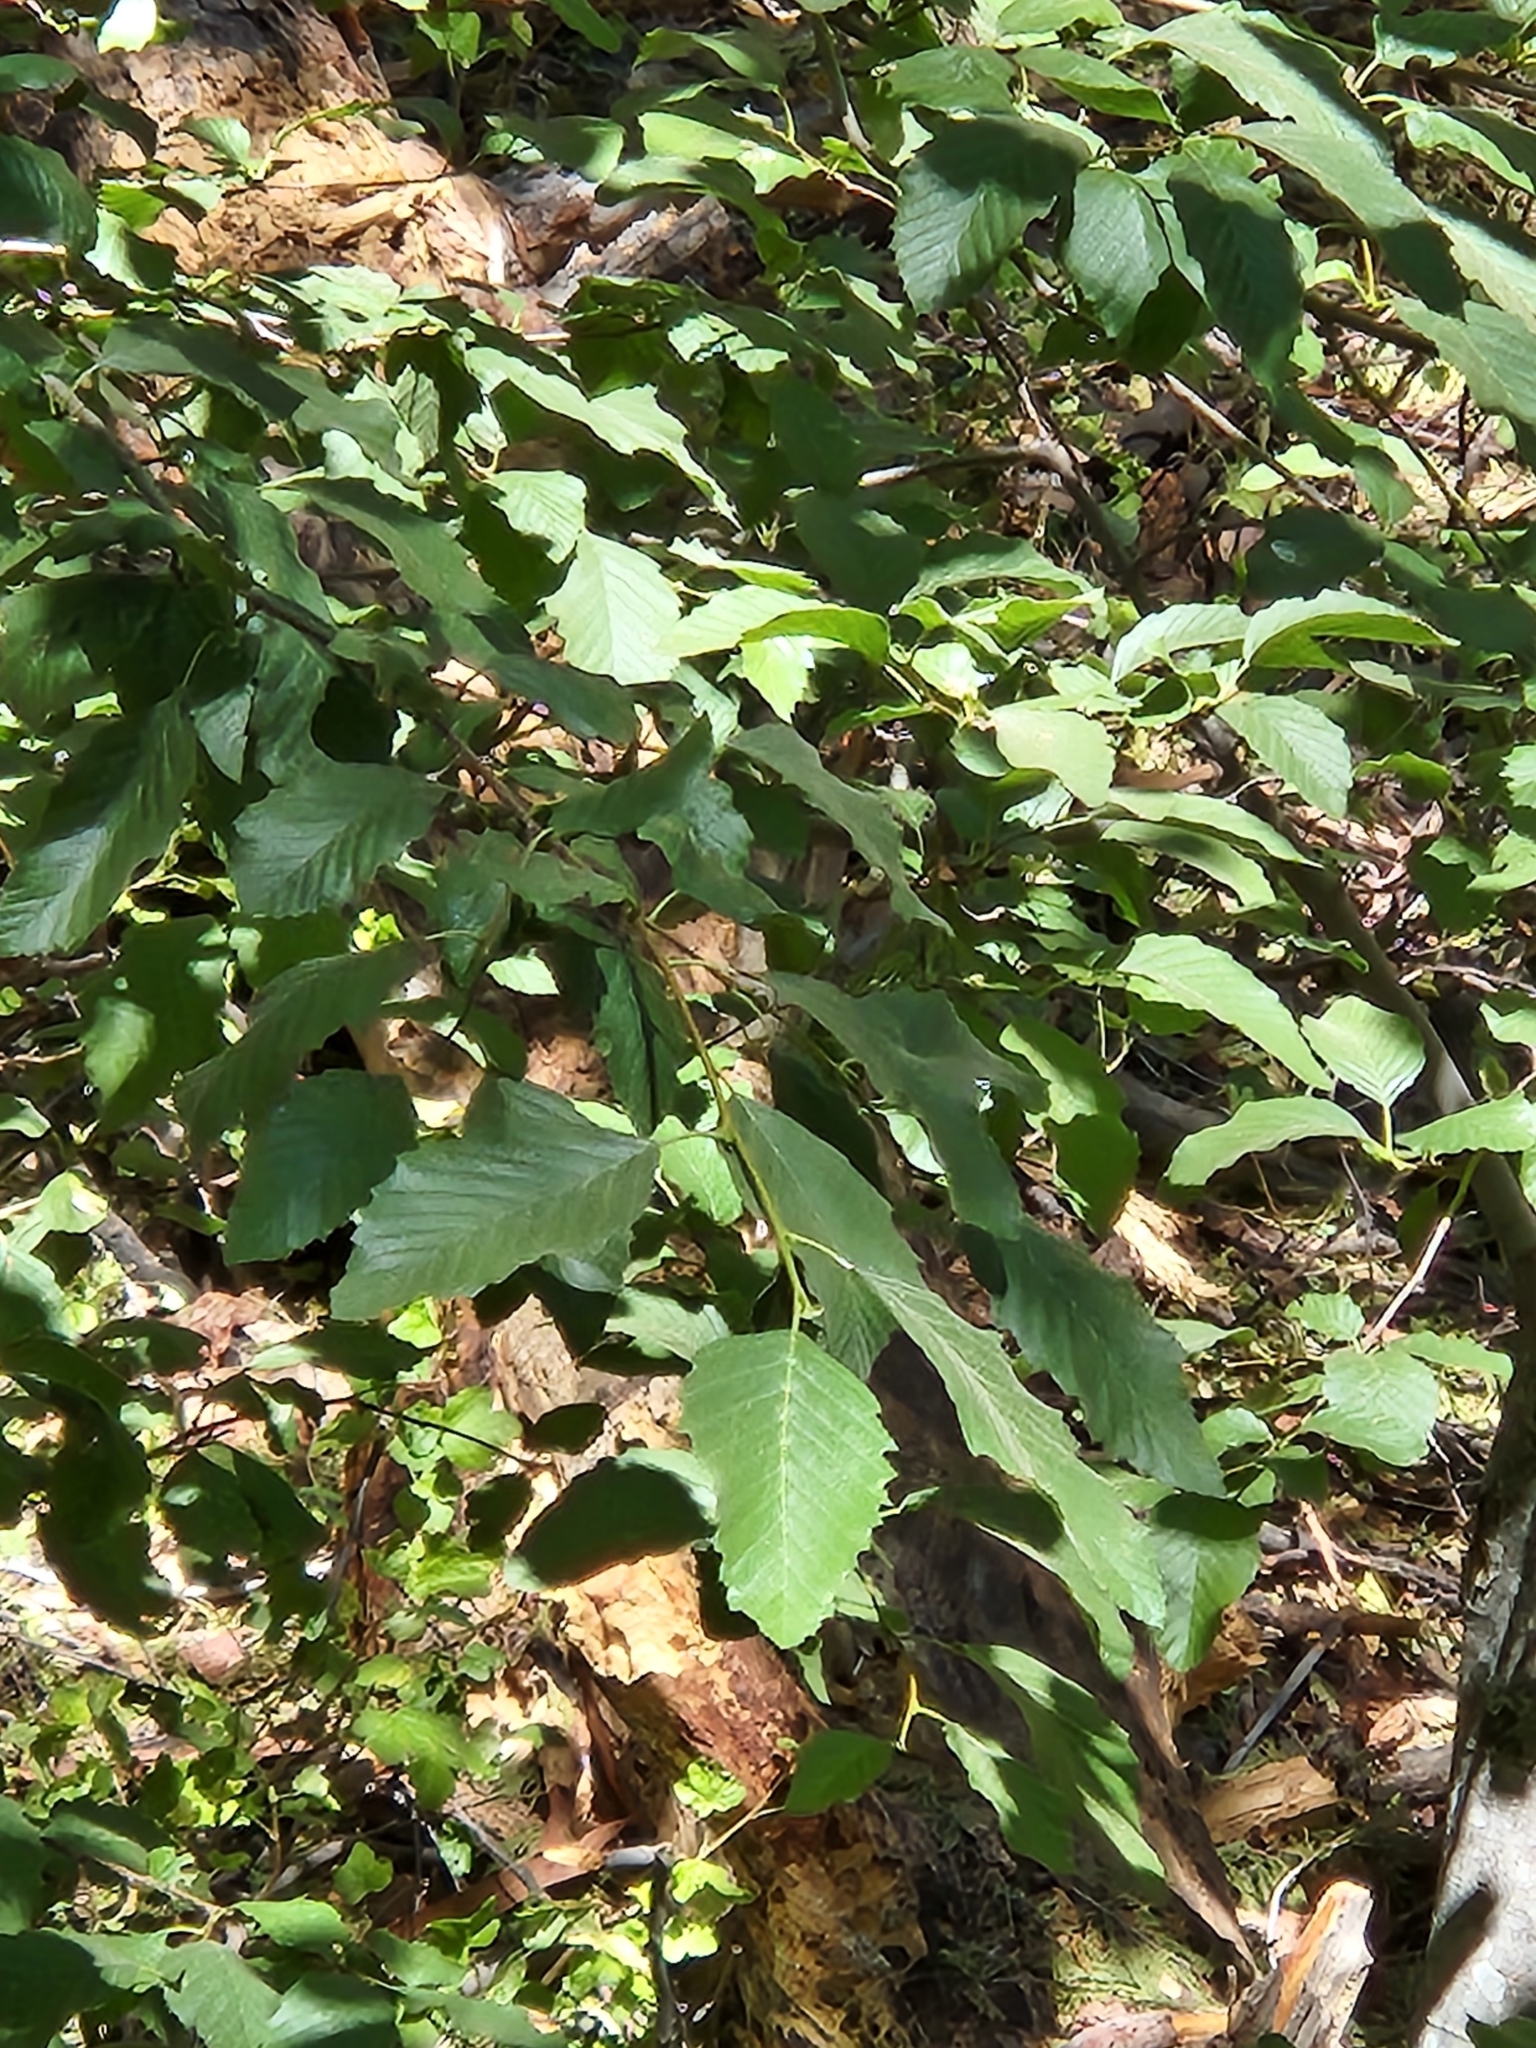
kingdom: Plantae
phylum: Tracheophyta
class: Magnoliopsida
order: Fagales
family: Betulaceae
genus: Alnus
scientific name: Alnus rhombifolia
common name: California alder
